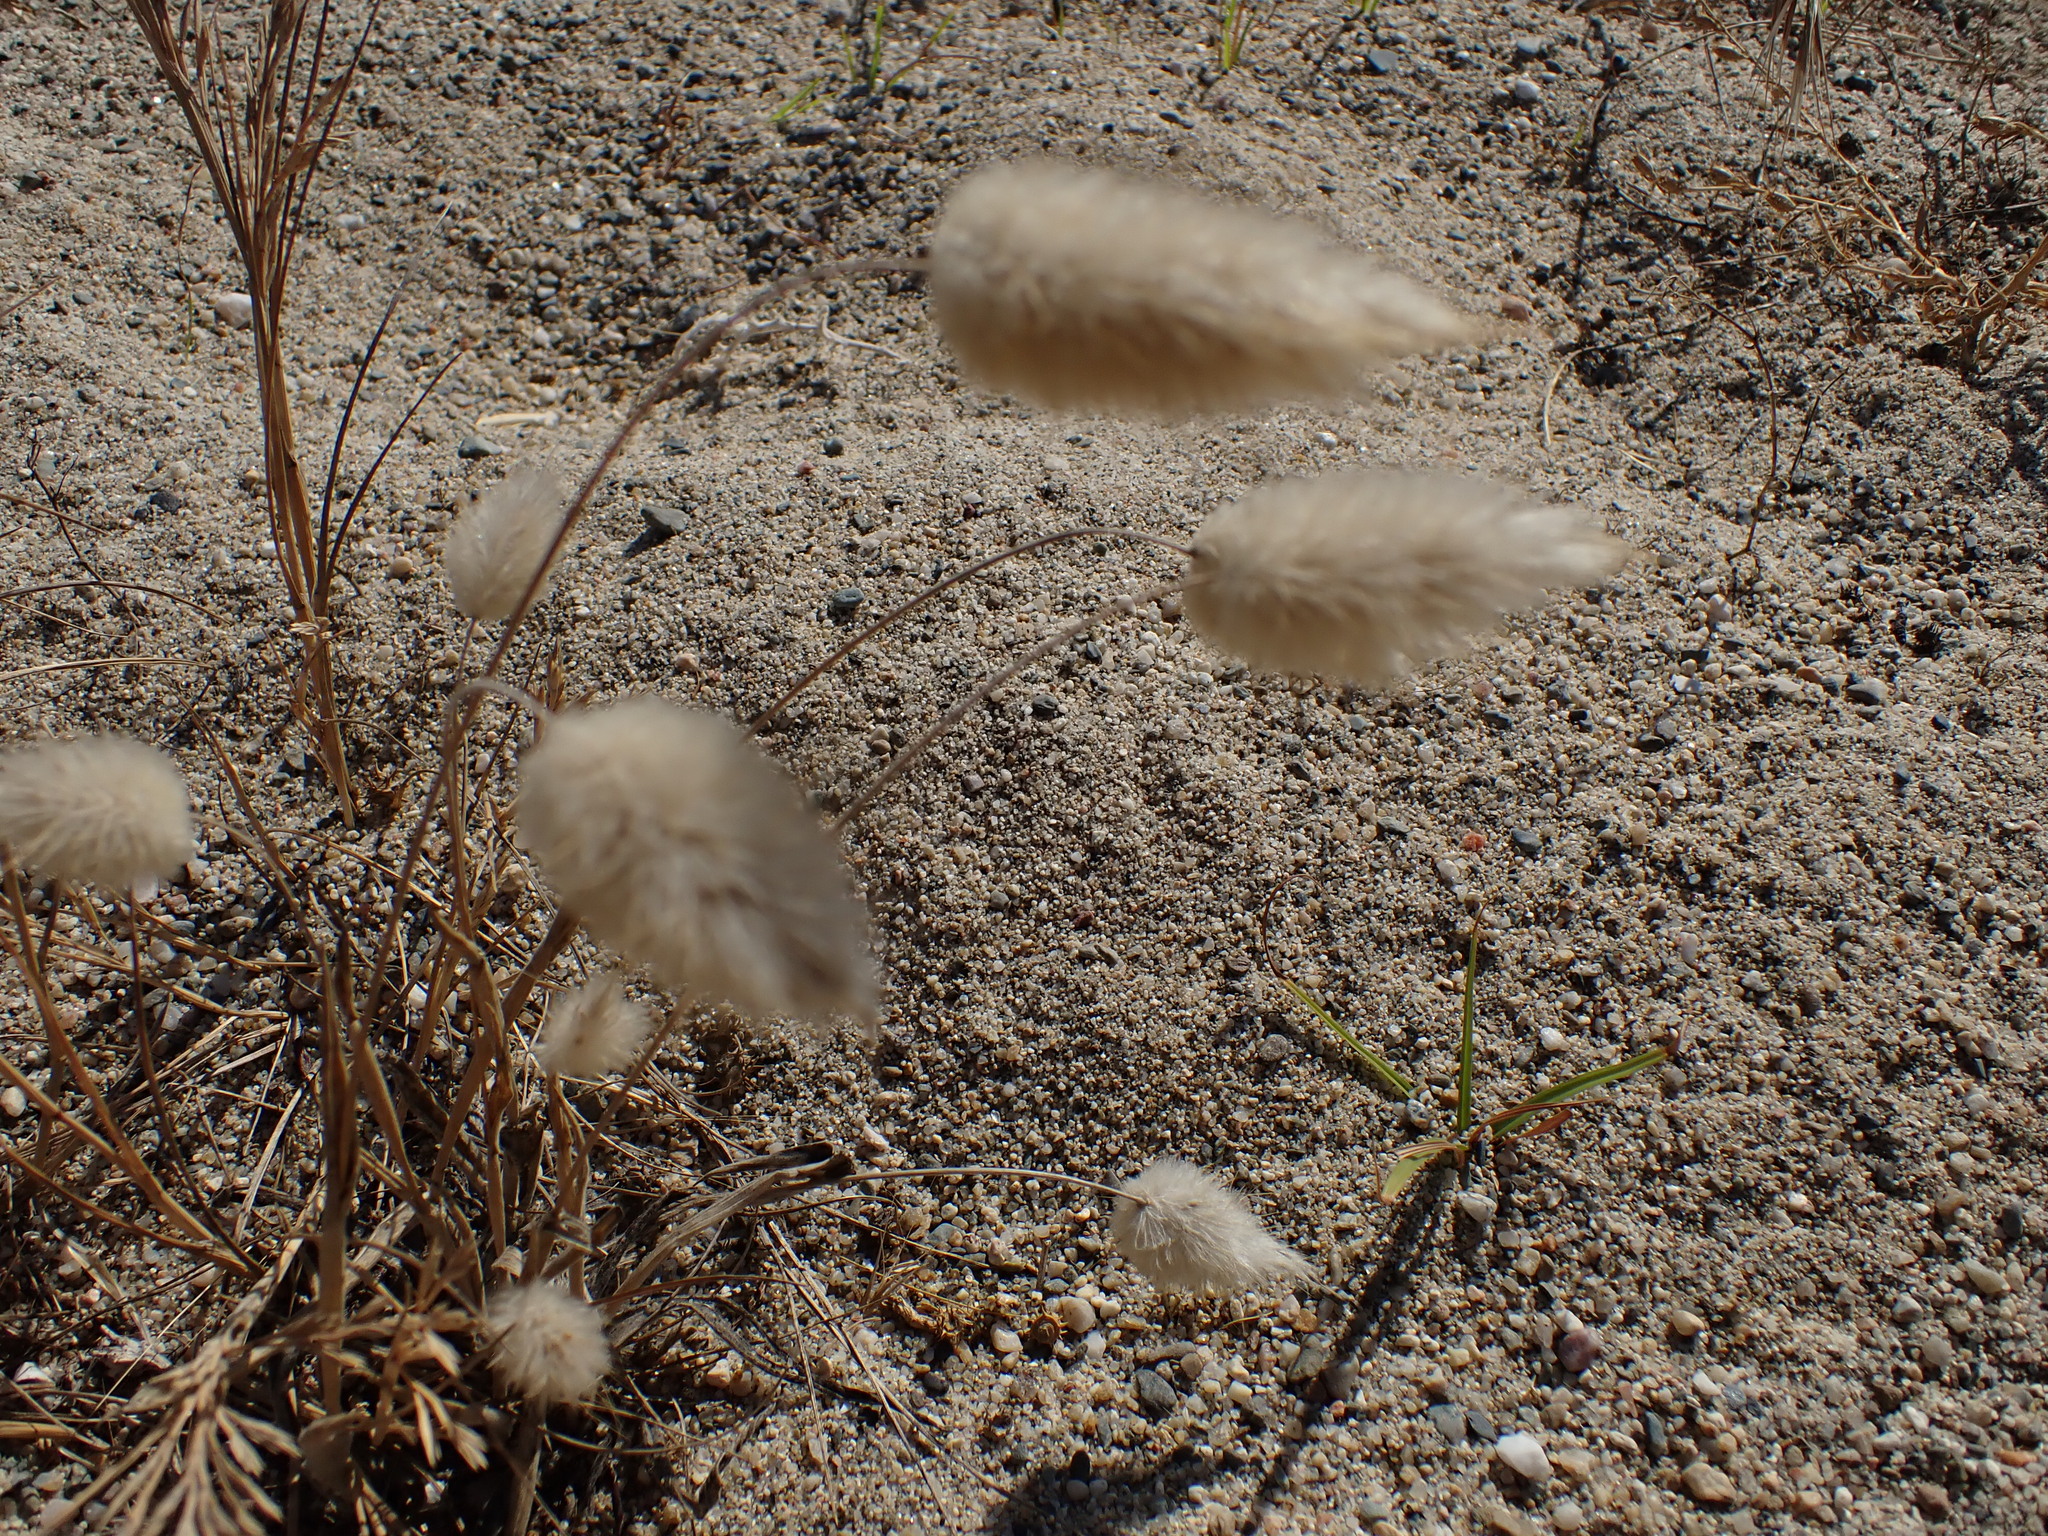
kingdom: Plantae
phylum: Tracheophyta
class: Liliopsida
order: Poales
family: Poaceae
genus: Lagurus
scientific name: Lagurus ovatus
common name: Hare's-tail
